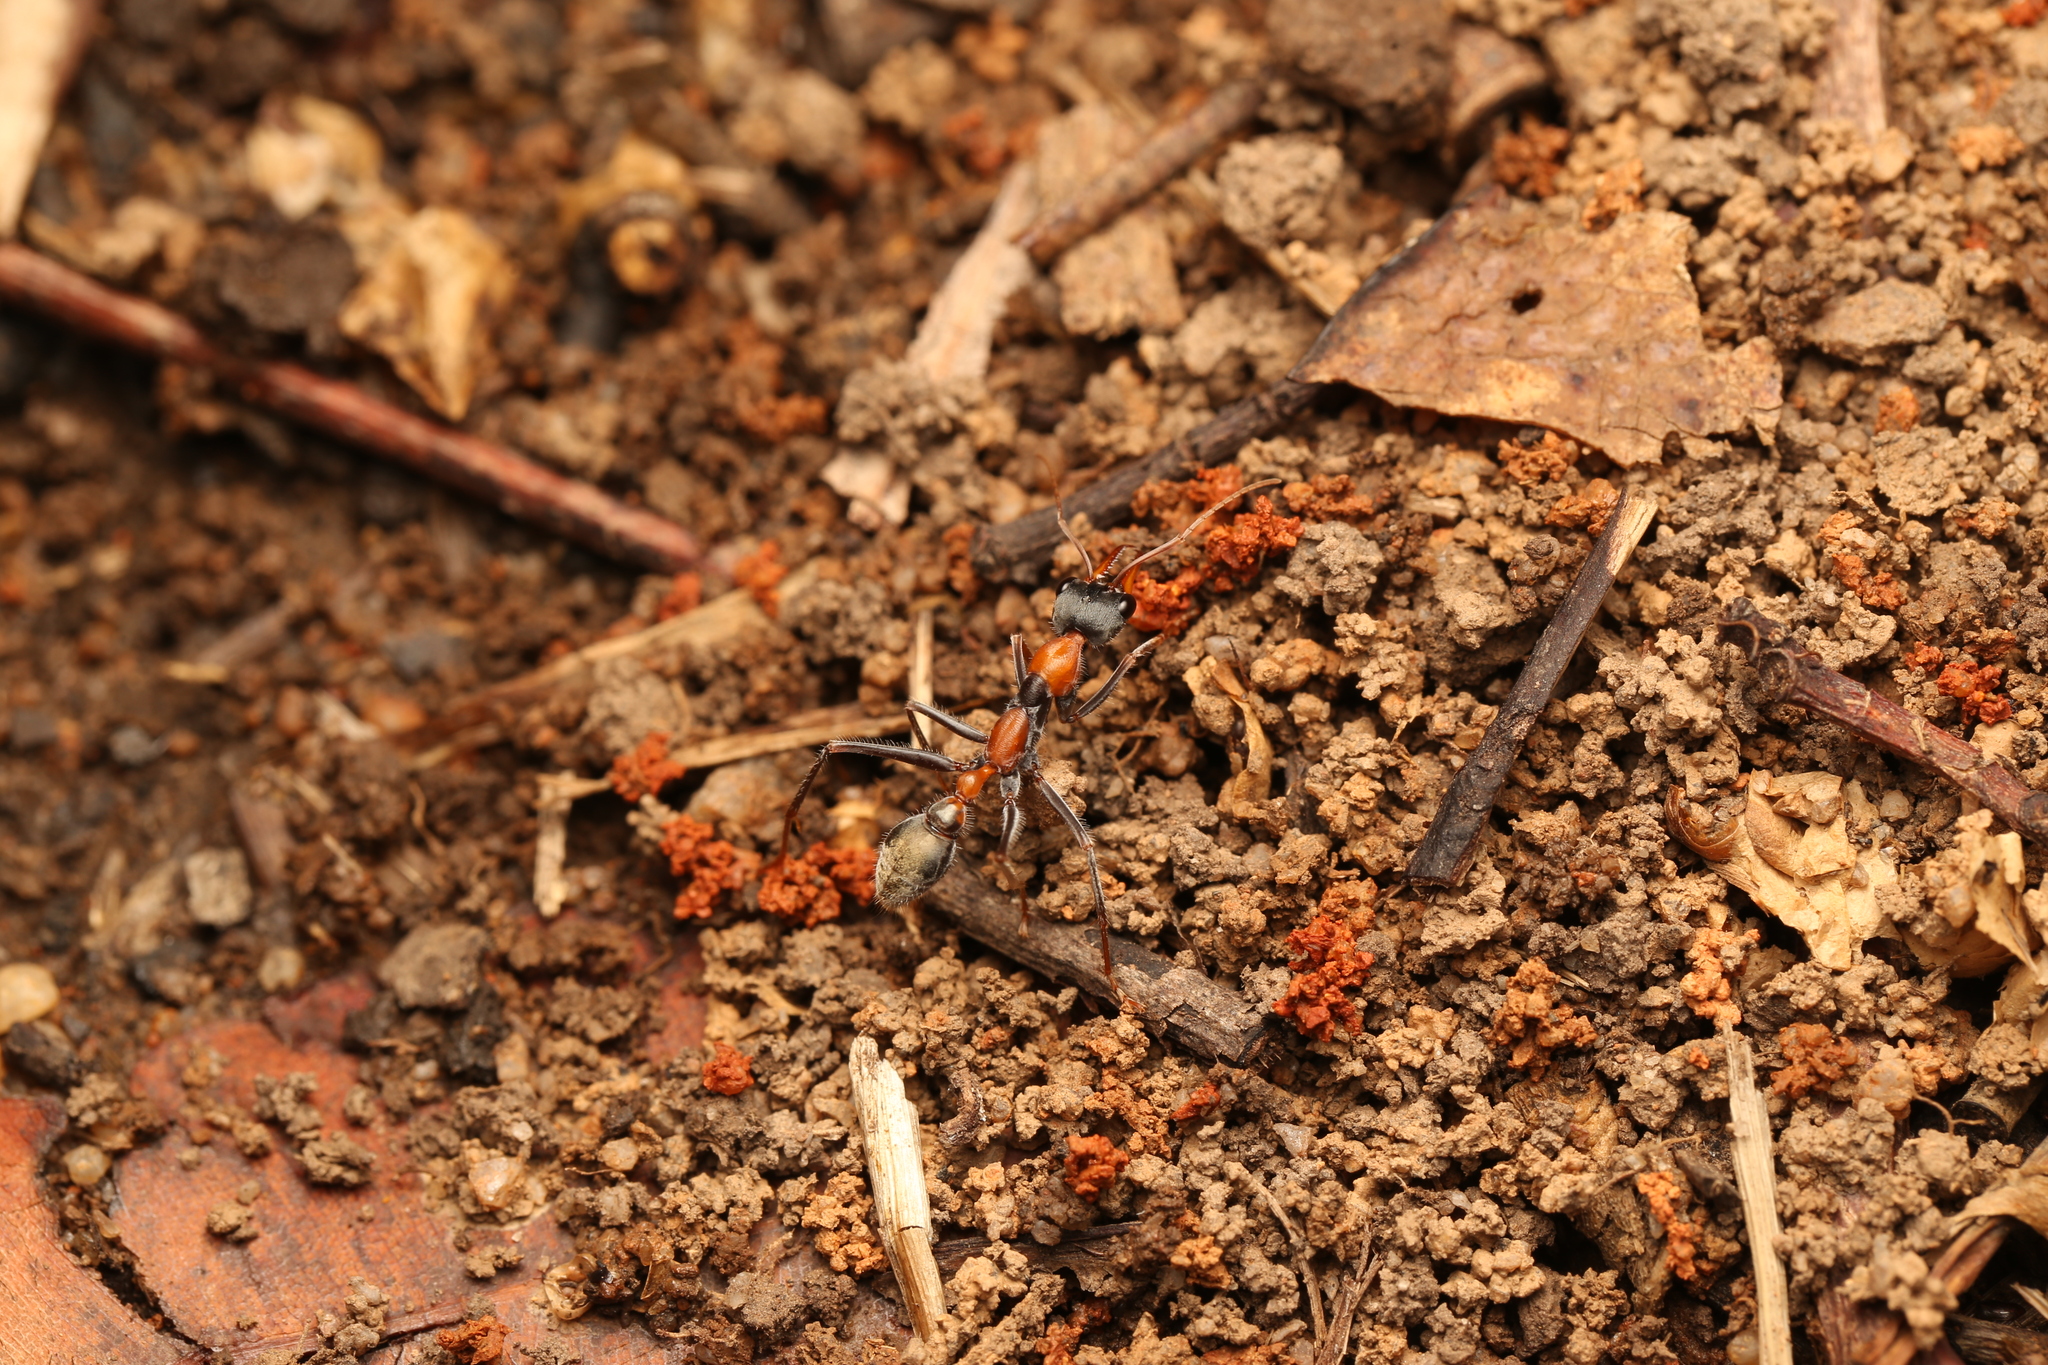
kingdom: Animalia
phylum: Arthropoda
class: Insecta
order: Hymenoptera
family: Formicidae
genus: Myrmecia
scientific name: Myrmecia nigrocincta
